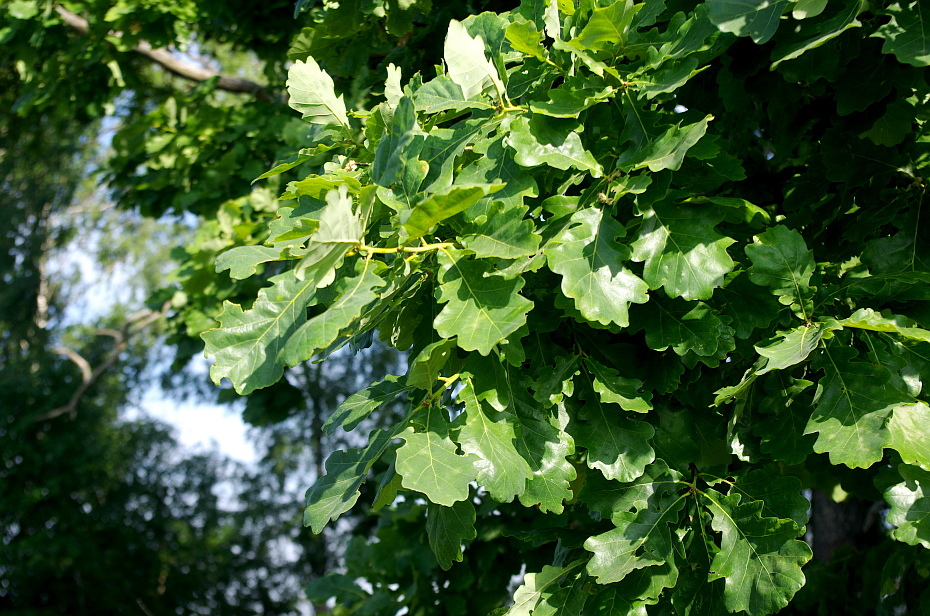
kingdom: Plantae
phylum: Tracheophyta
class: Magnoliopsida
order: Fagales
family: Fagaceae
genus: Quercus
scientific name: Quercus robur
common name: Pedunculate oak
